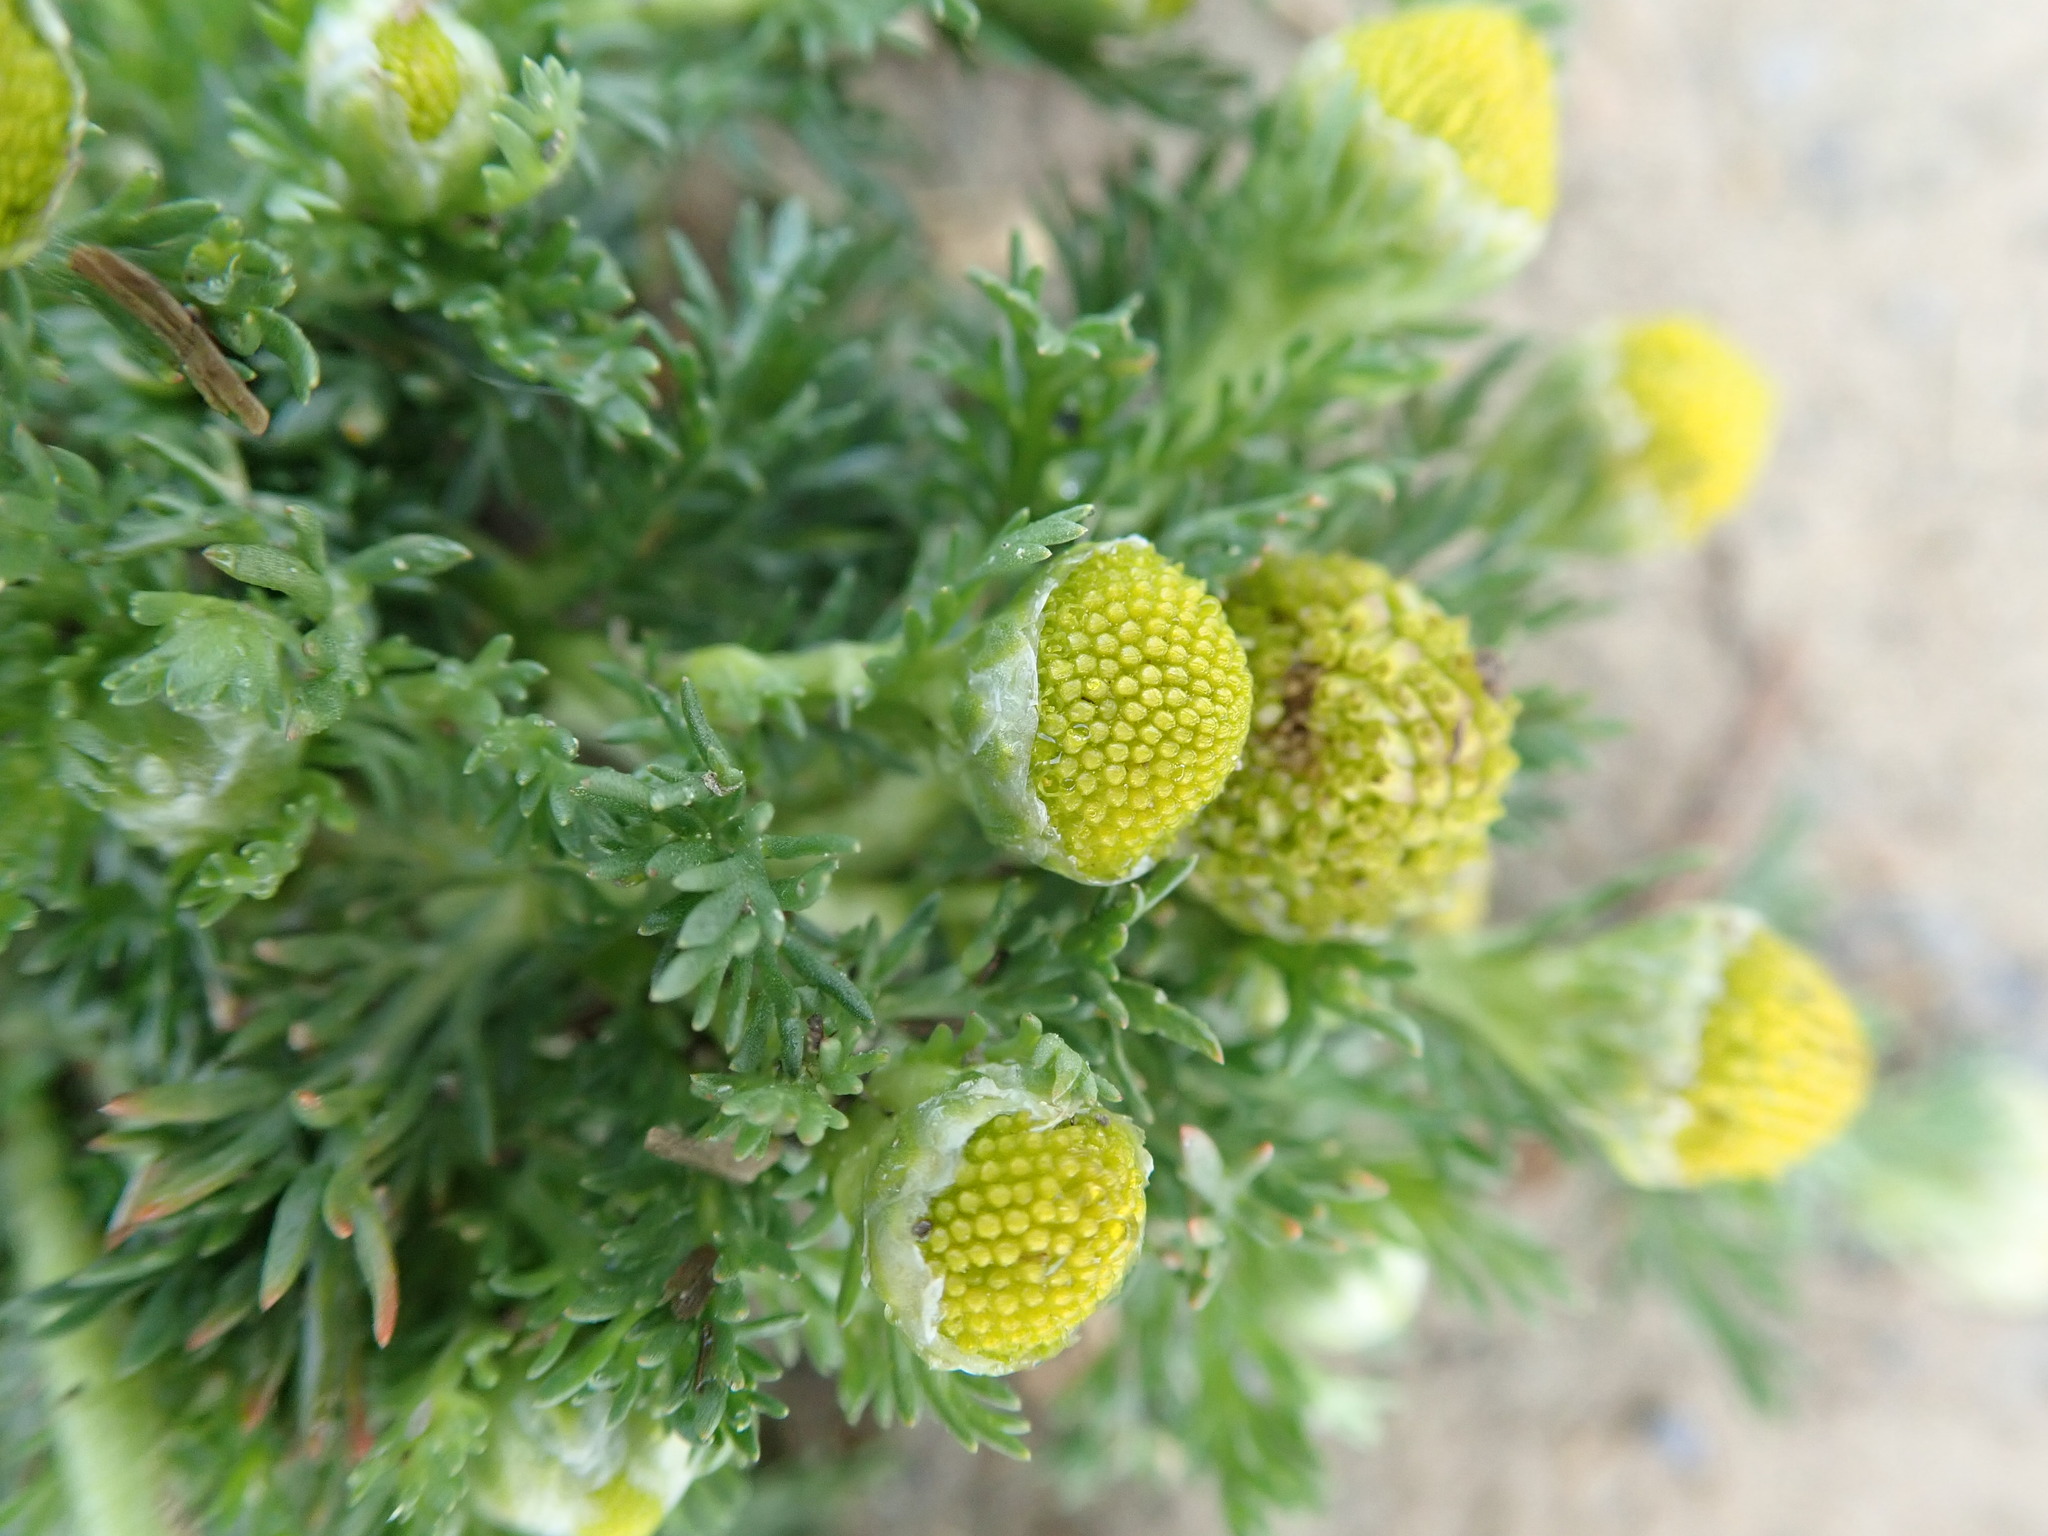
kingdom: Plantae
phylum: Tracheophyta
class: Magnoliopsida
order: Asterales
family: Asteraceae
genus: Matricaria
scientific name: Matricaria discoidea
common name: Disc mayweed
